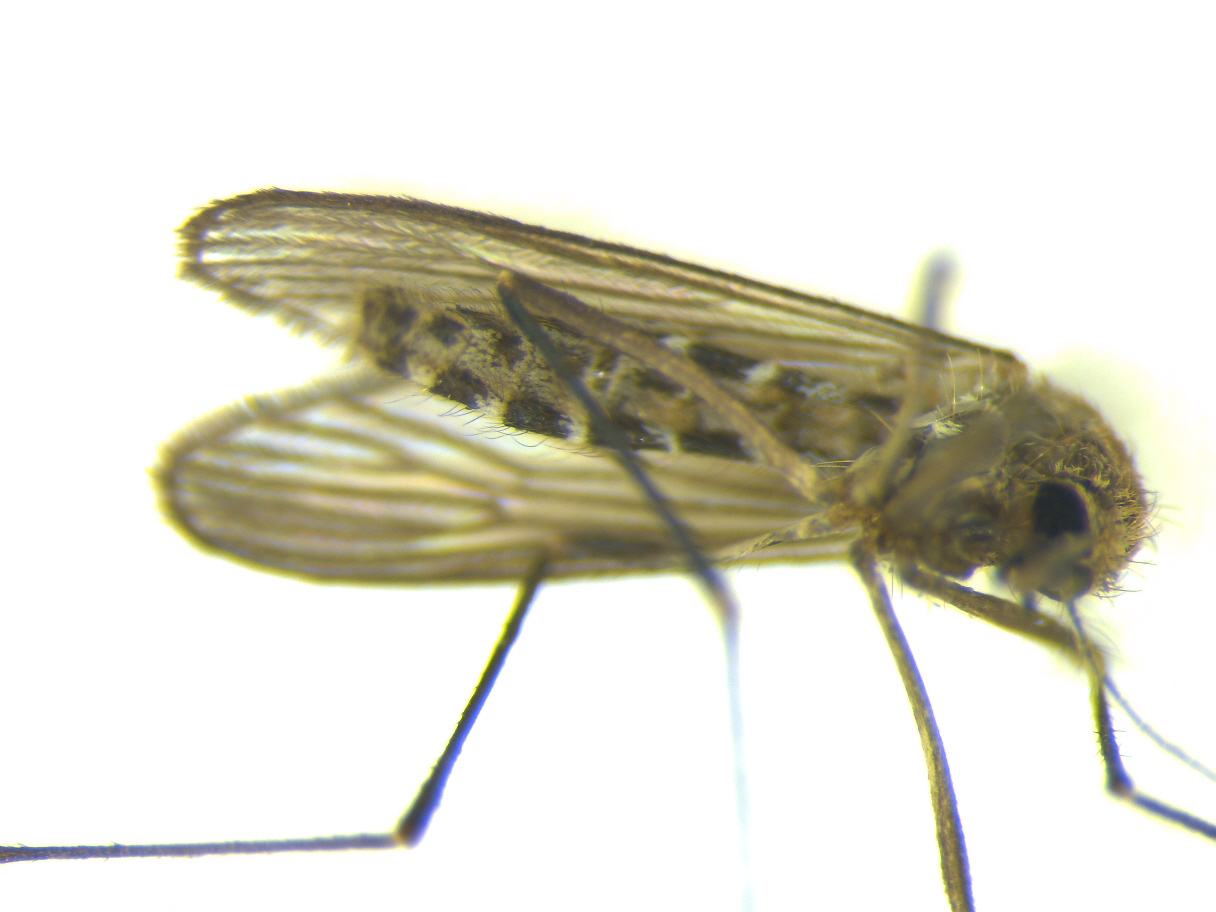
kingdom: Animalia
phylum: Arthropoda
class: Insecta
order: Diptera
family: Culicidae
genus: Culex
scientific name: Culex pervigilans
